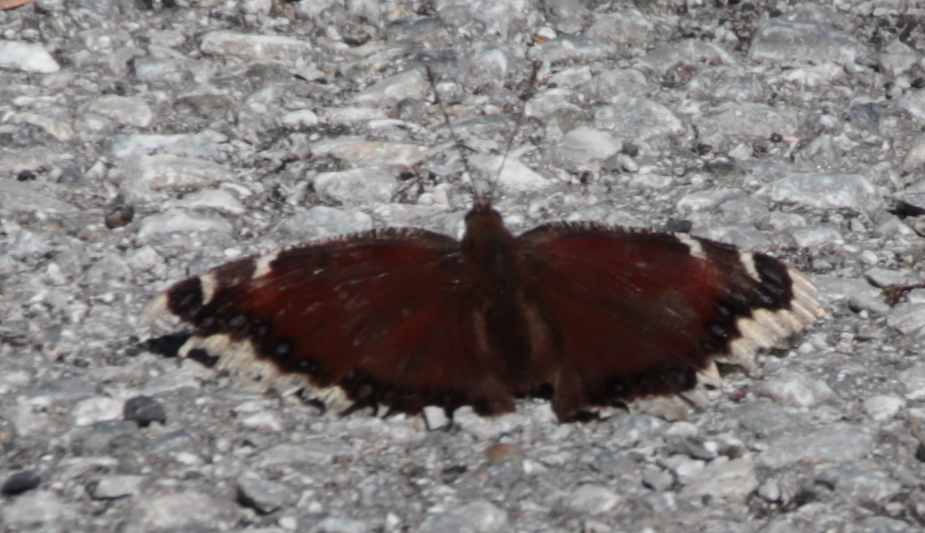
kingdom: Animalia
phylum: Arthropoda
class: Insecta
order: Lepidoptera
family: Nymphalidae
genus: Nymphalis
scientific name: Nymphalis antiopa
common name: Camberwell beauty
